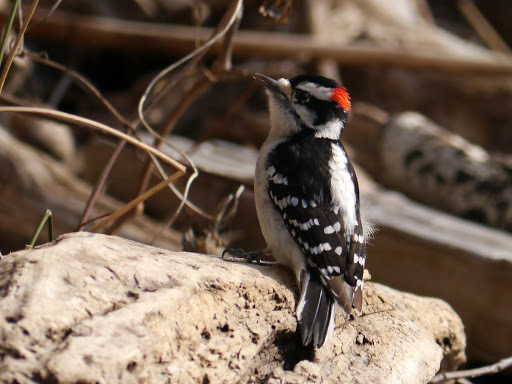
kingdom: Animalia
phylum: Chordata
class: Aves
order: Piciformes
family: Picidae
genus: Dryobates
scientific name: Dryobates pubescens
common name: Downy woodpecker
